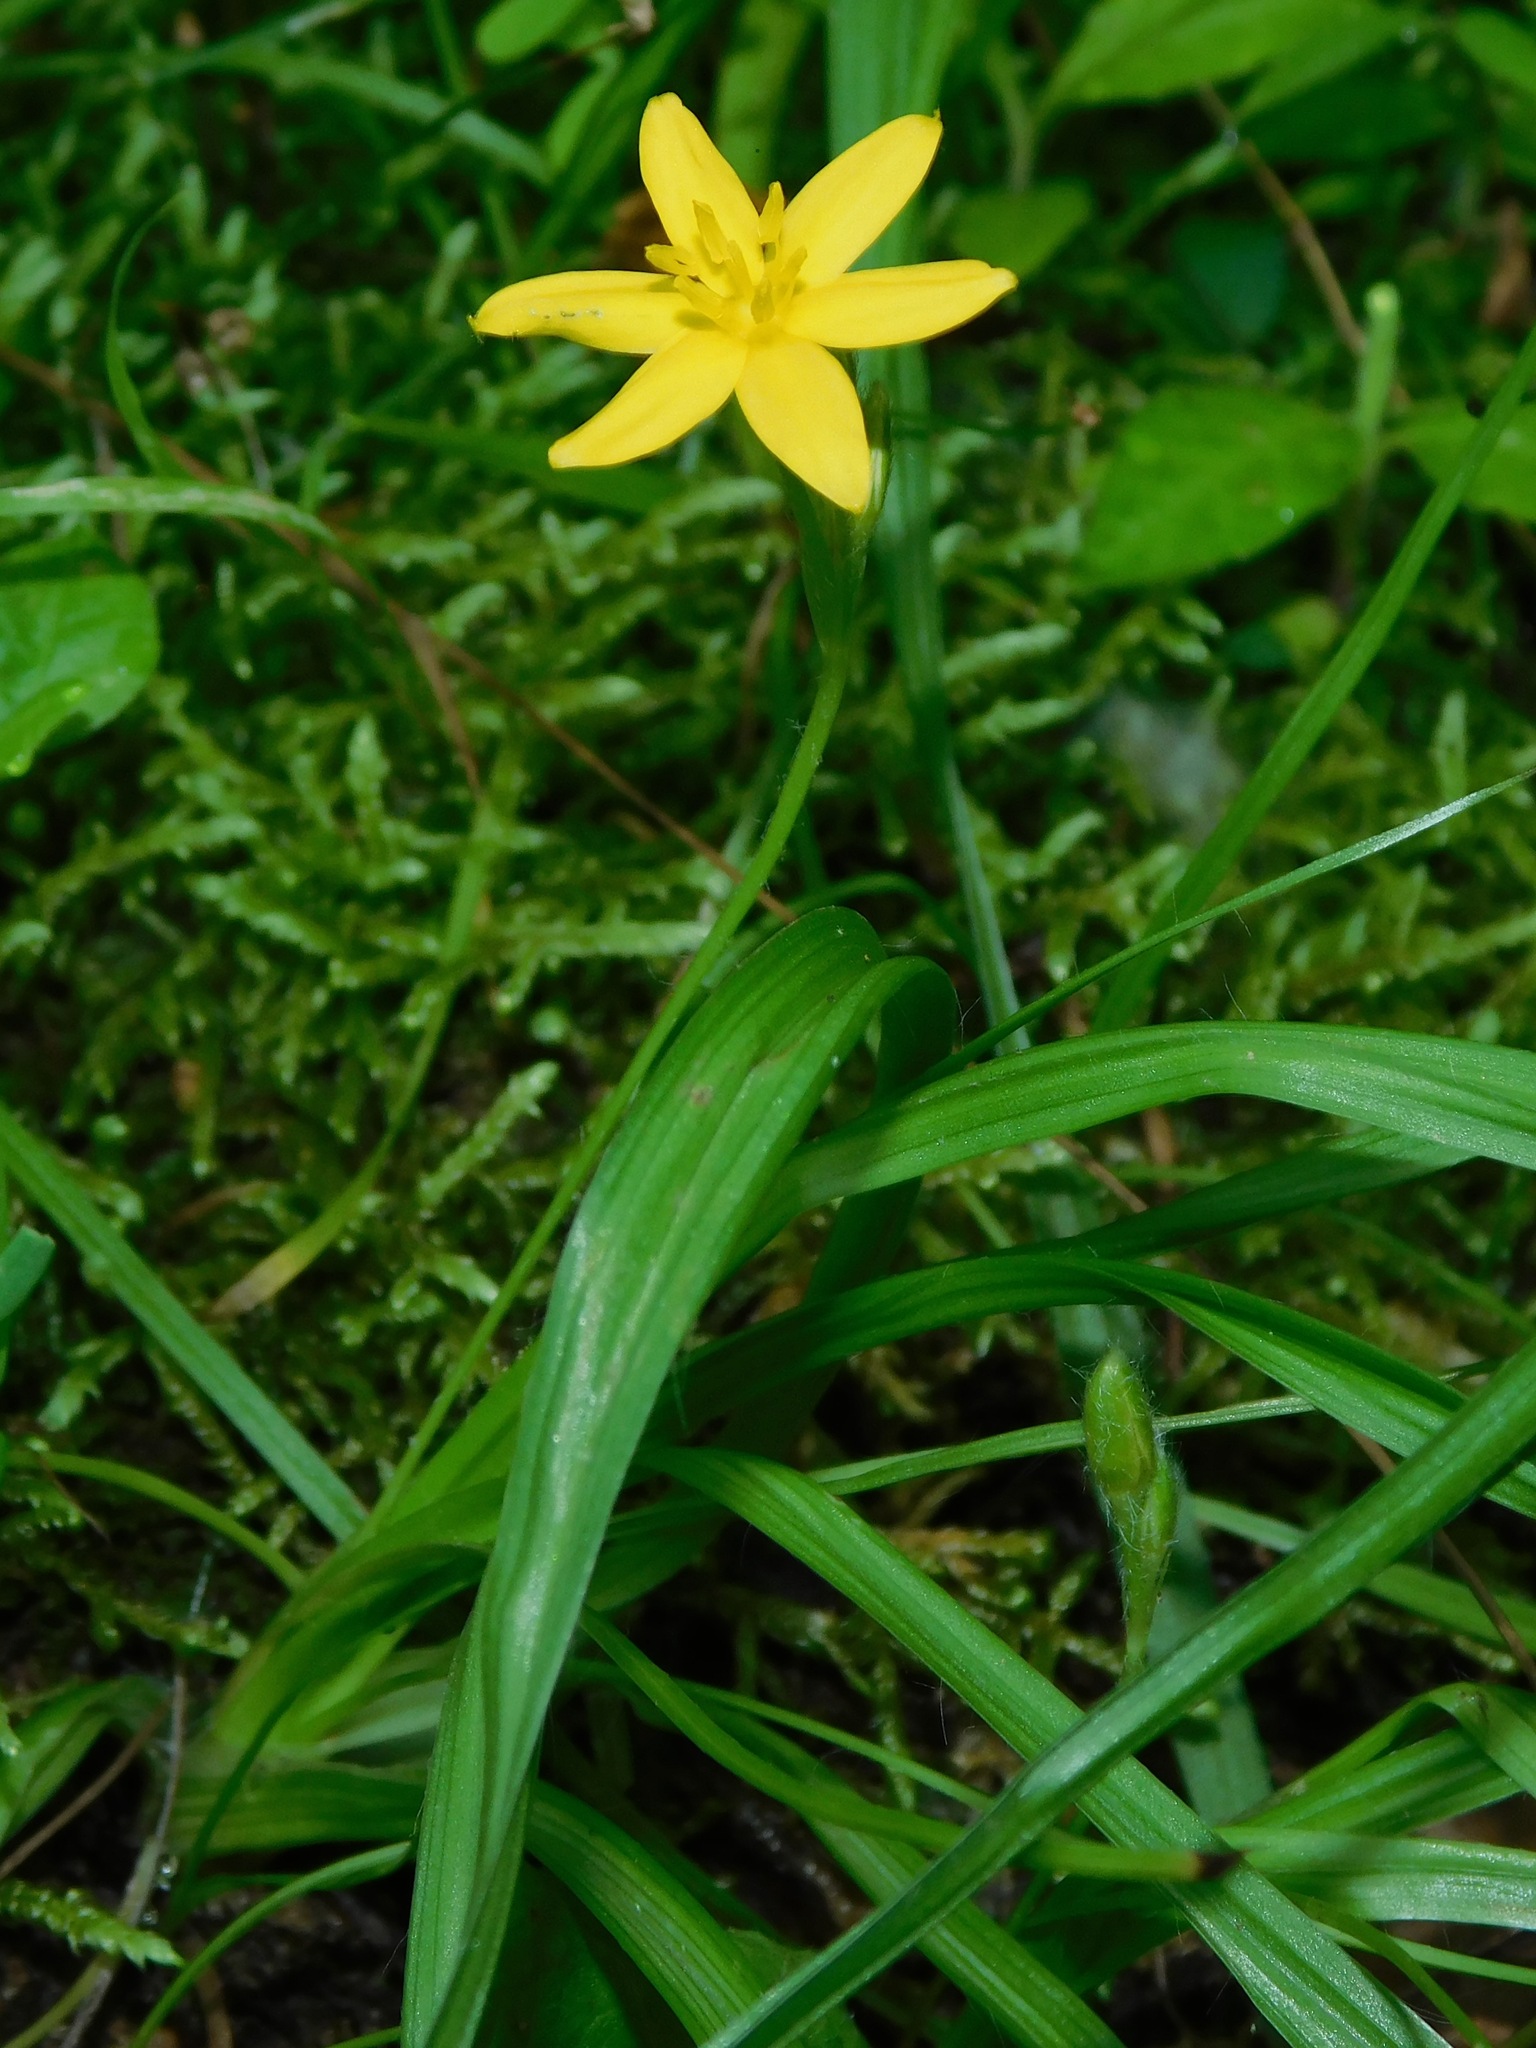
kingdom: Plantae
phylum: Tracheophyta
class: Liliopsida
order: Asparagales
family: Hypoxidaceae
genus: Hypoxis
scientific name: Hypoxis hirsuta
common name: Common goldstar
